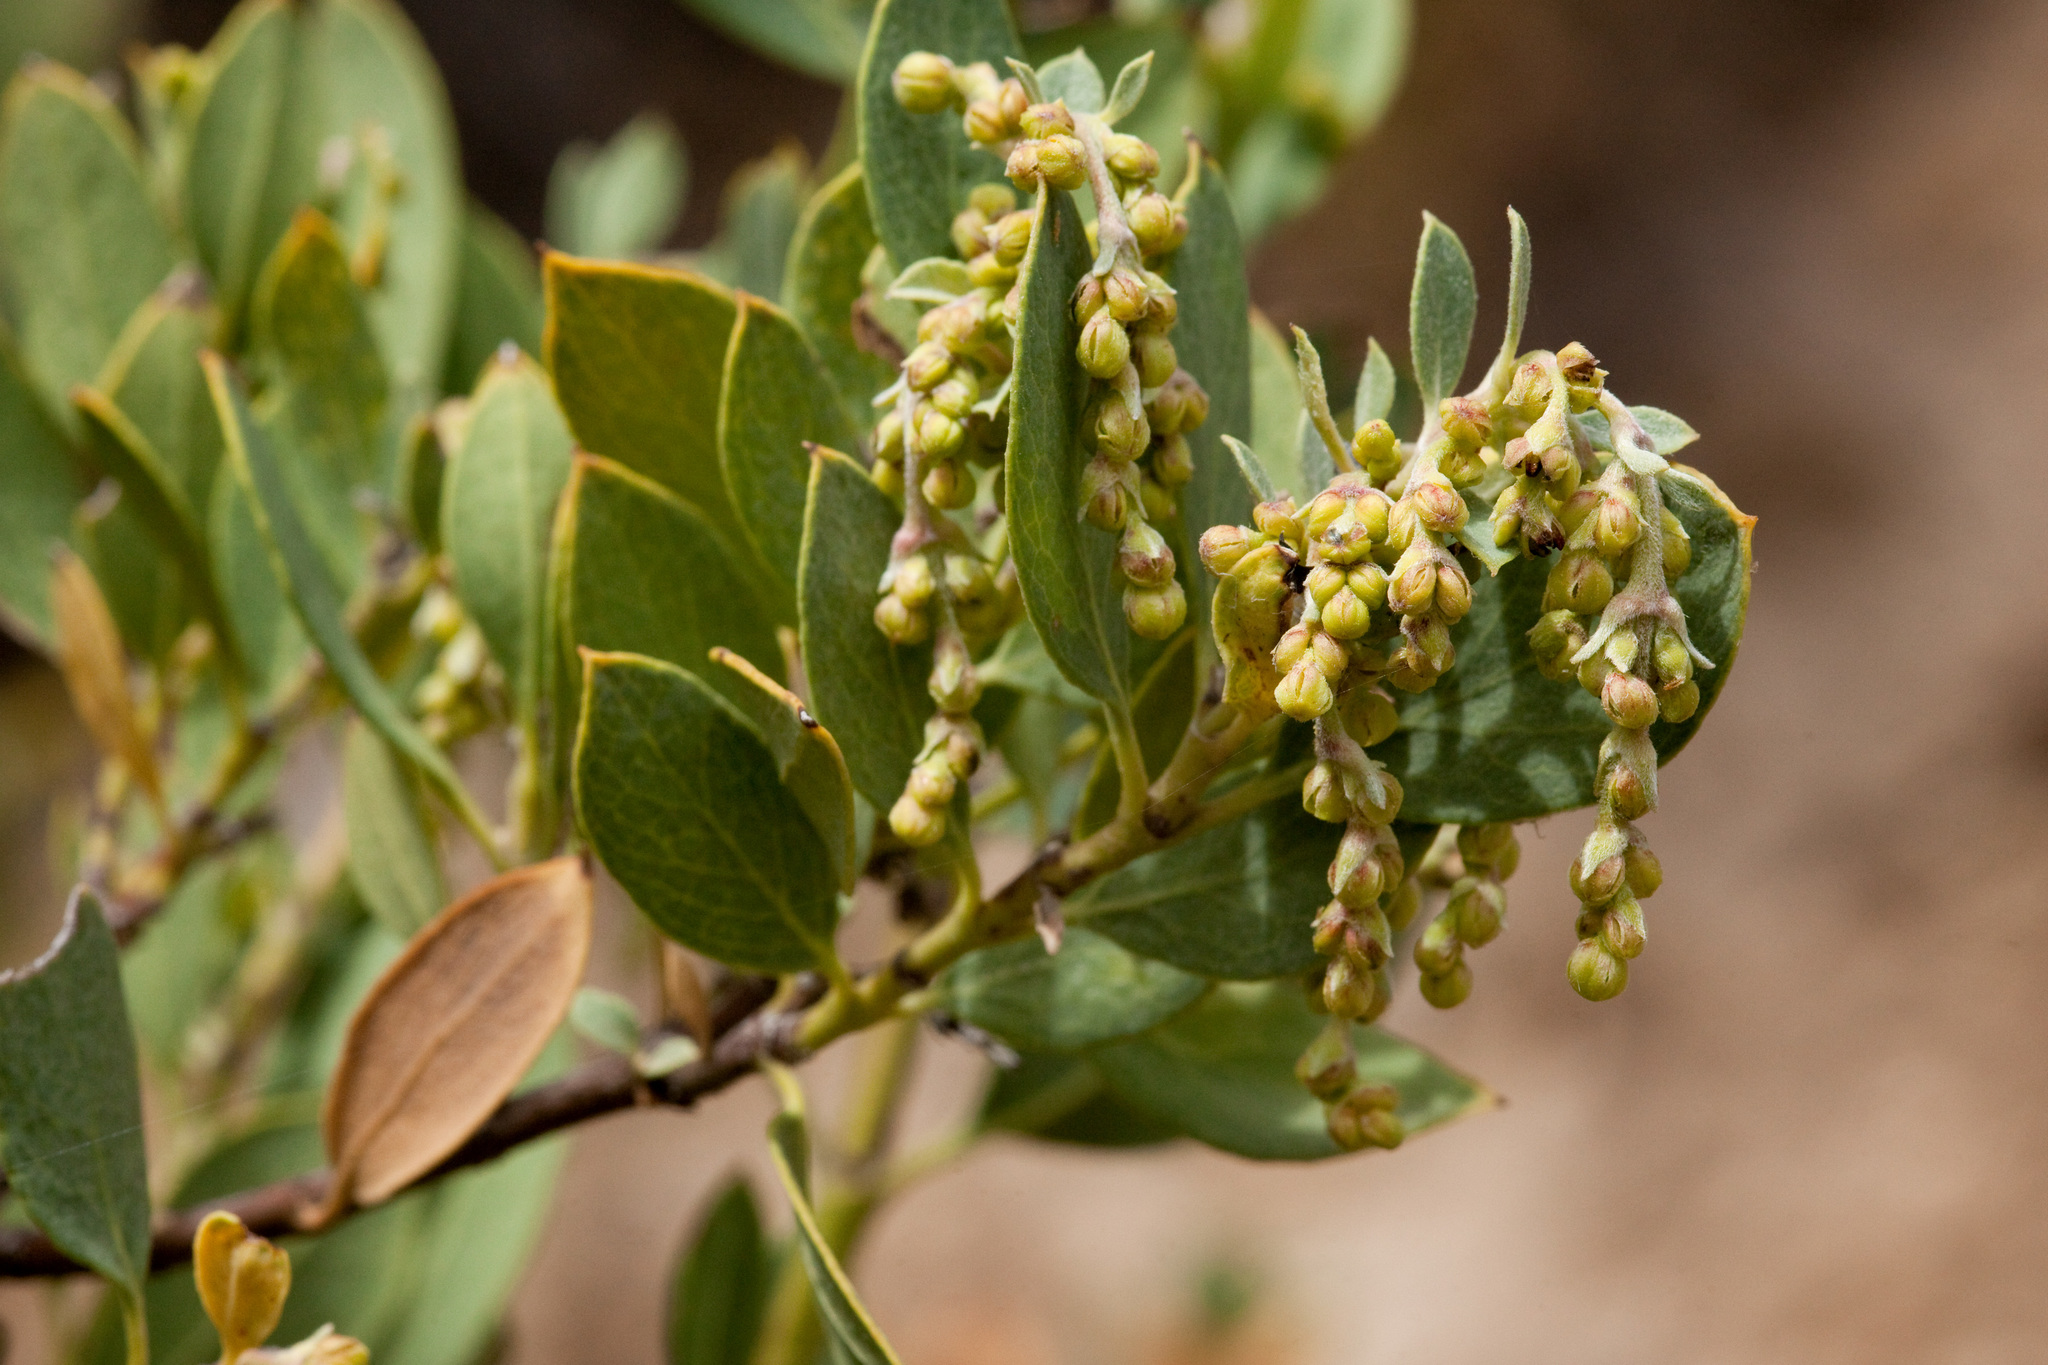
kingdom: Plantae
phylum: Tracheophyta
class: Magnoliopsida
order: Garryales
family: Garryaceae
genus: Garrya
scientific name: Garrya wrightii
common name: Wright's silktassel
